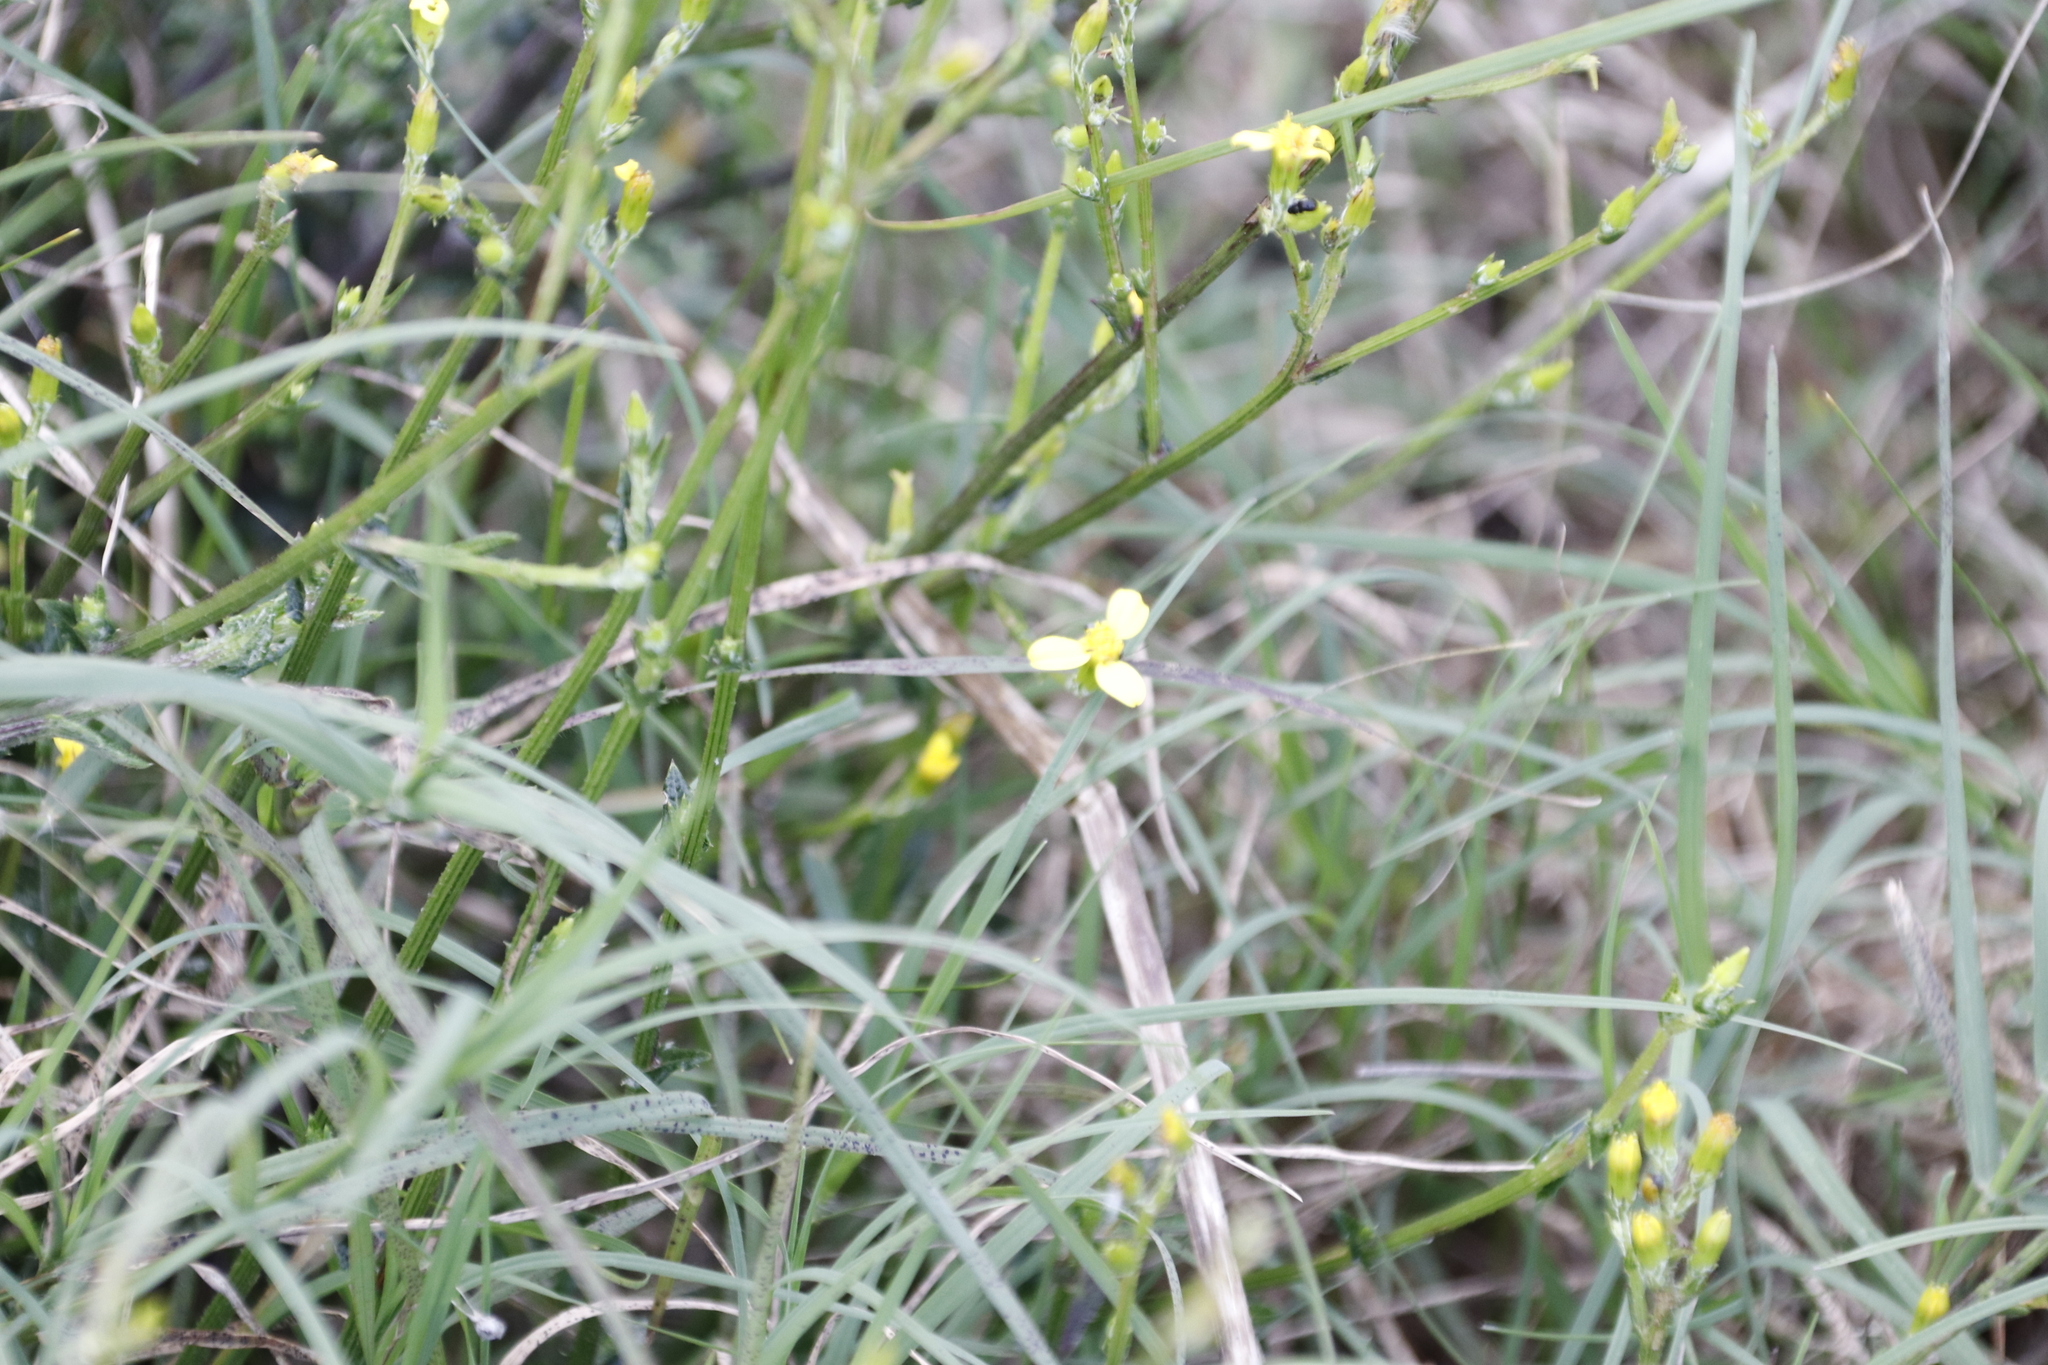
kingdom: Plantae
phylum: Tracheophyta
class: Magnoliopsida
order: Asterales
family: Asteraceae
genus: Senecio
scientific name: Senecio pubigerus
